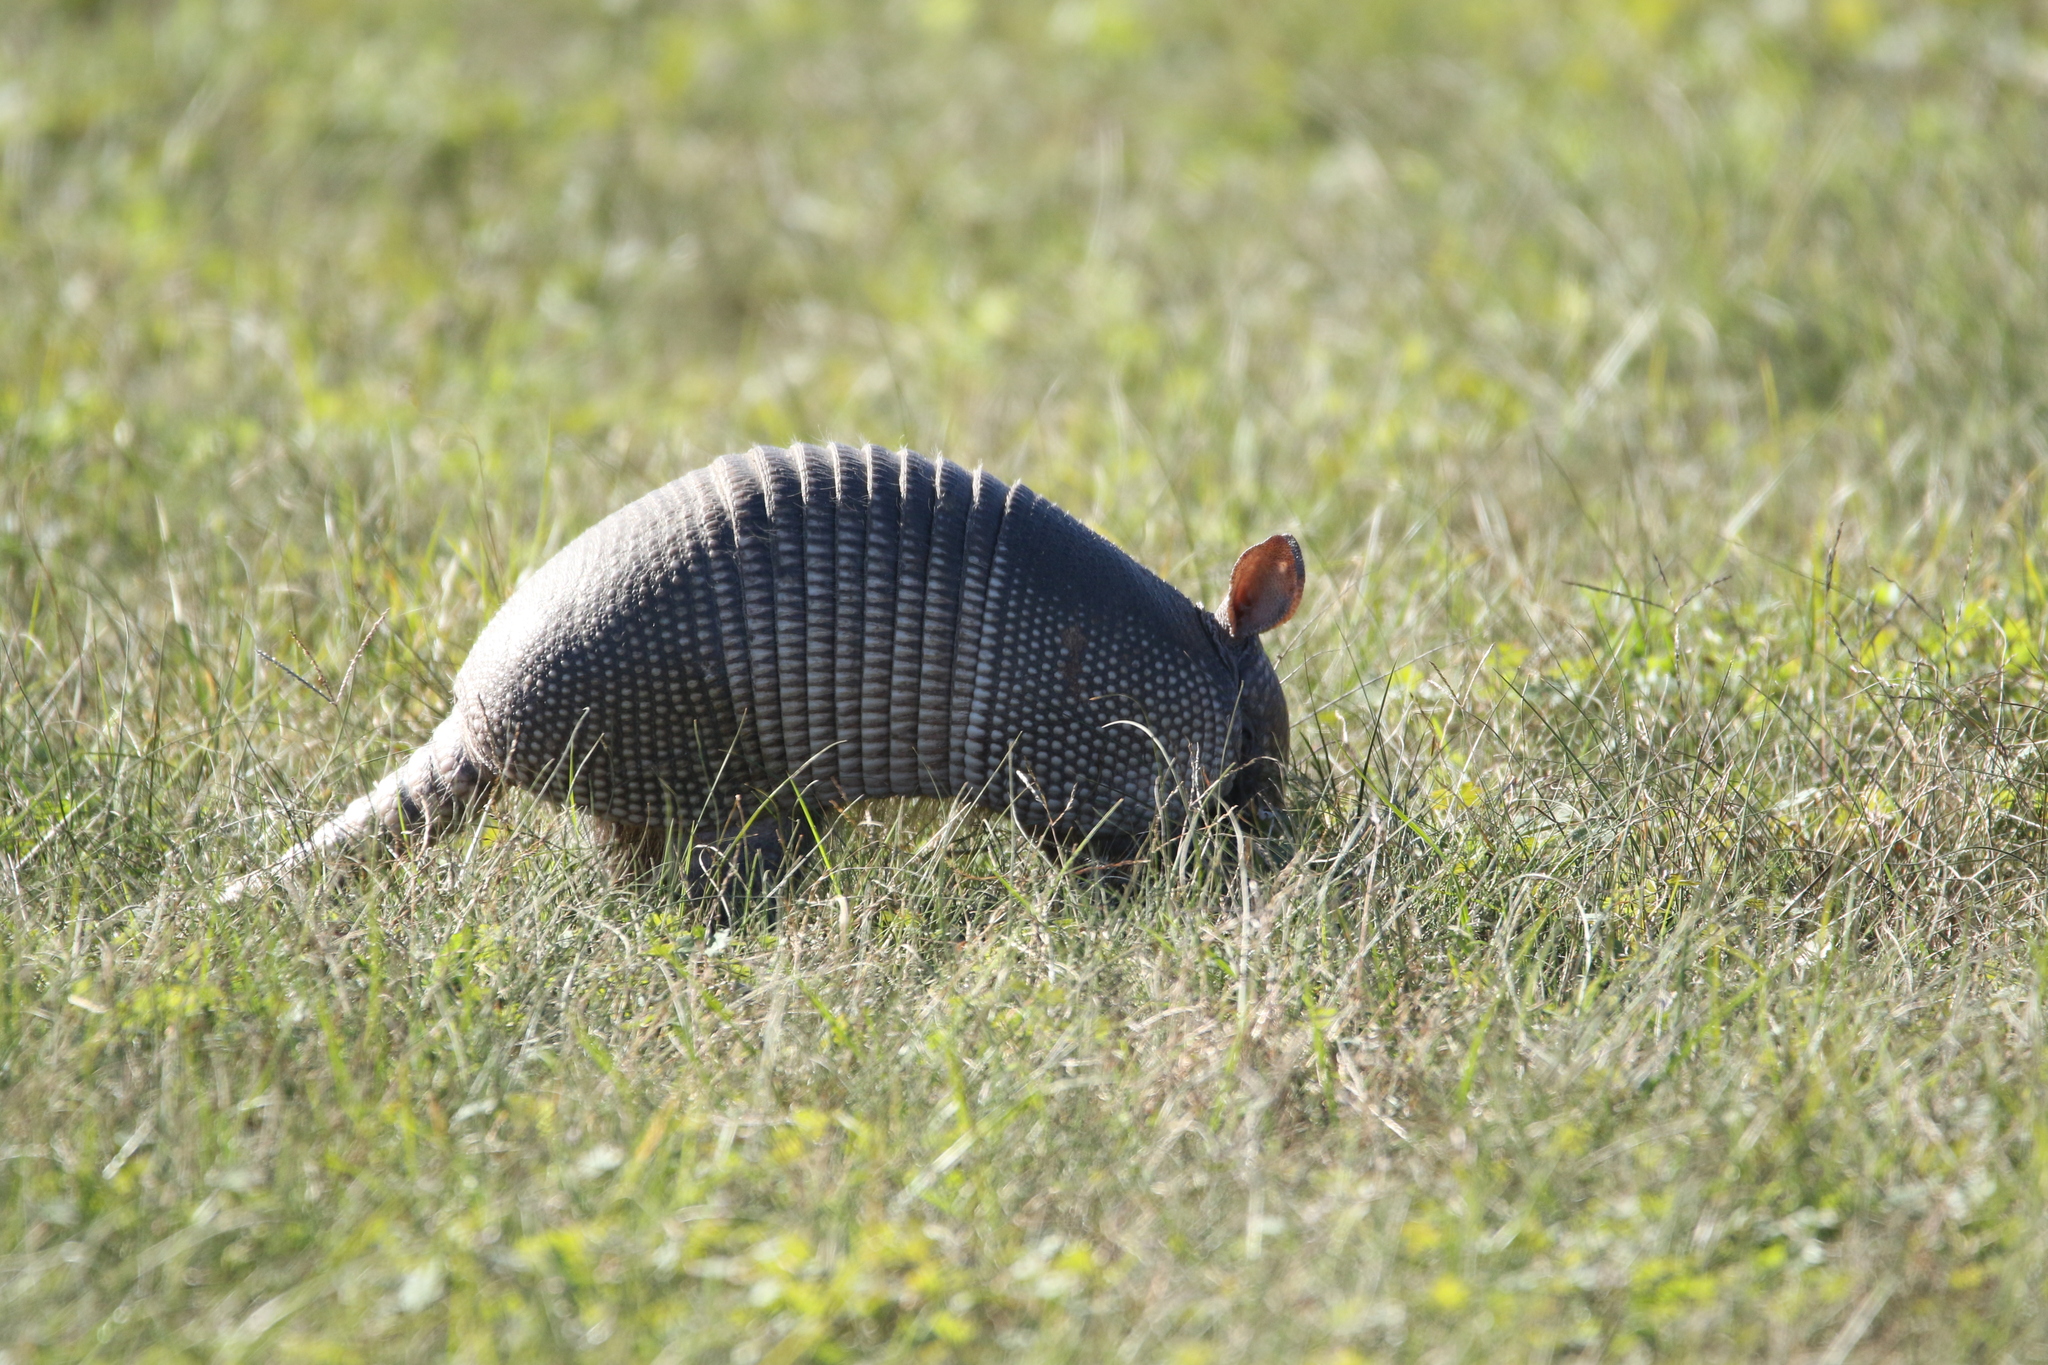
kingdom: Animalia
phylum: Chordata
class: Mammalia
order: Cingulata
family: Dasypodidae
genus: Dasypus
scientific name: Dasypus novemcinctus
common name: Nine-banded armadillo
